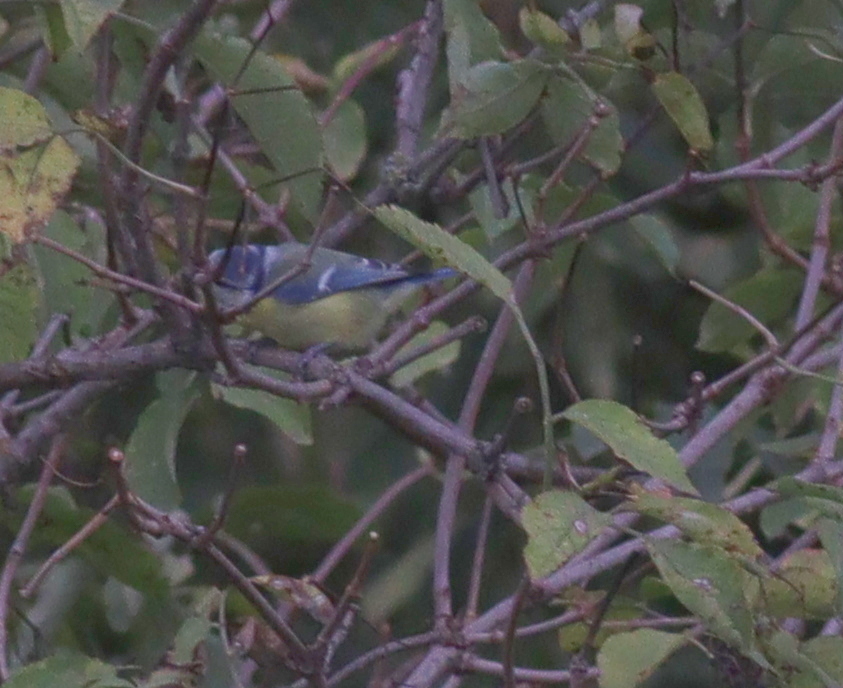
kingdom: Animalia
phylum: Chordata
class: Aves
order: Passeriformes
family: Paridae
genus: Cyanistes
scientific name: Cyanistes caeruleus
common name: Eurasian blue tit
